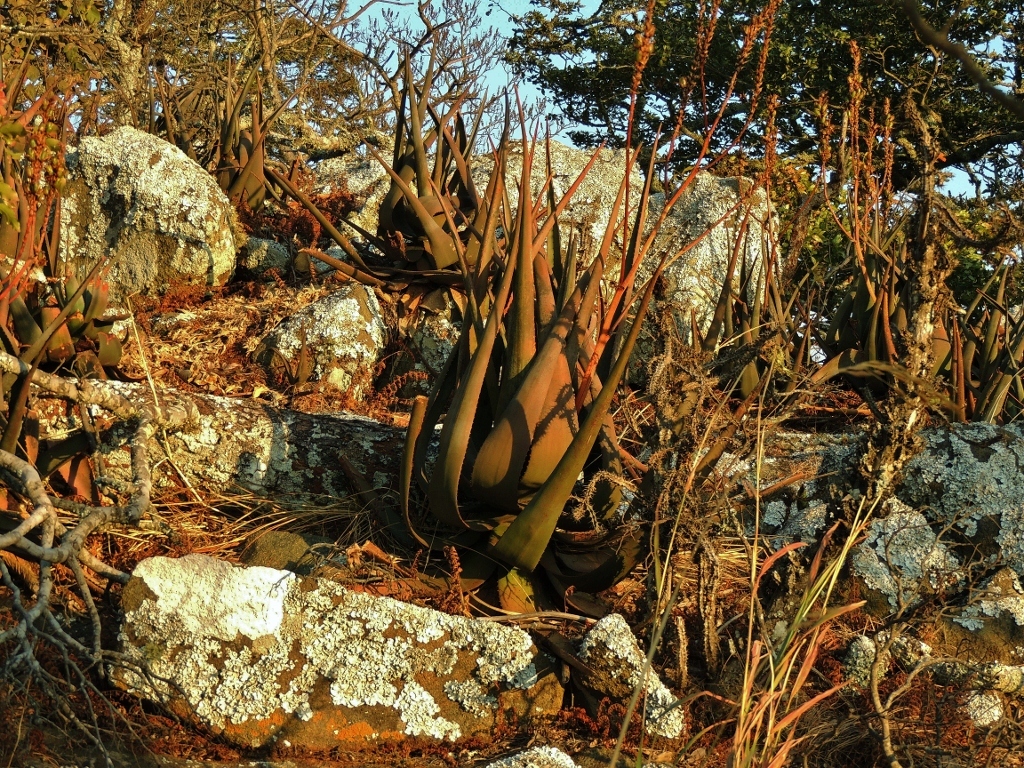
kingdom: Plantae
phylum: Tracheophyta
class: Liliopsida
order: Asparagales
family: Asphodelaceae
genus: Aloe
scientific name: Aloe cryptopoda
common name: Dr. kirk's aloe
